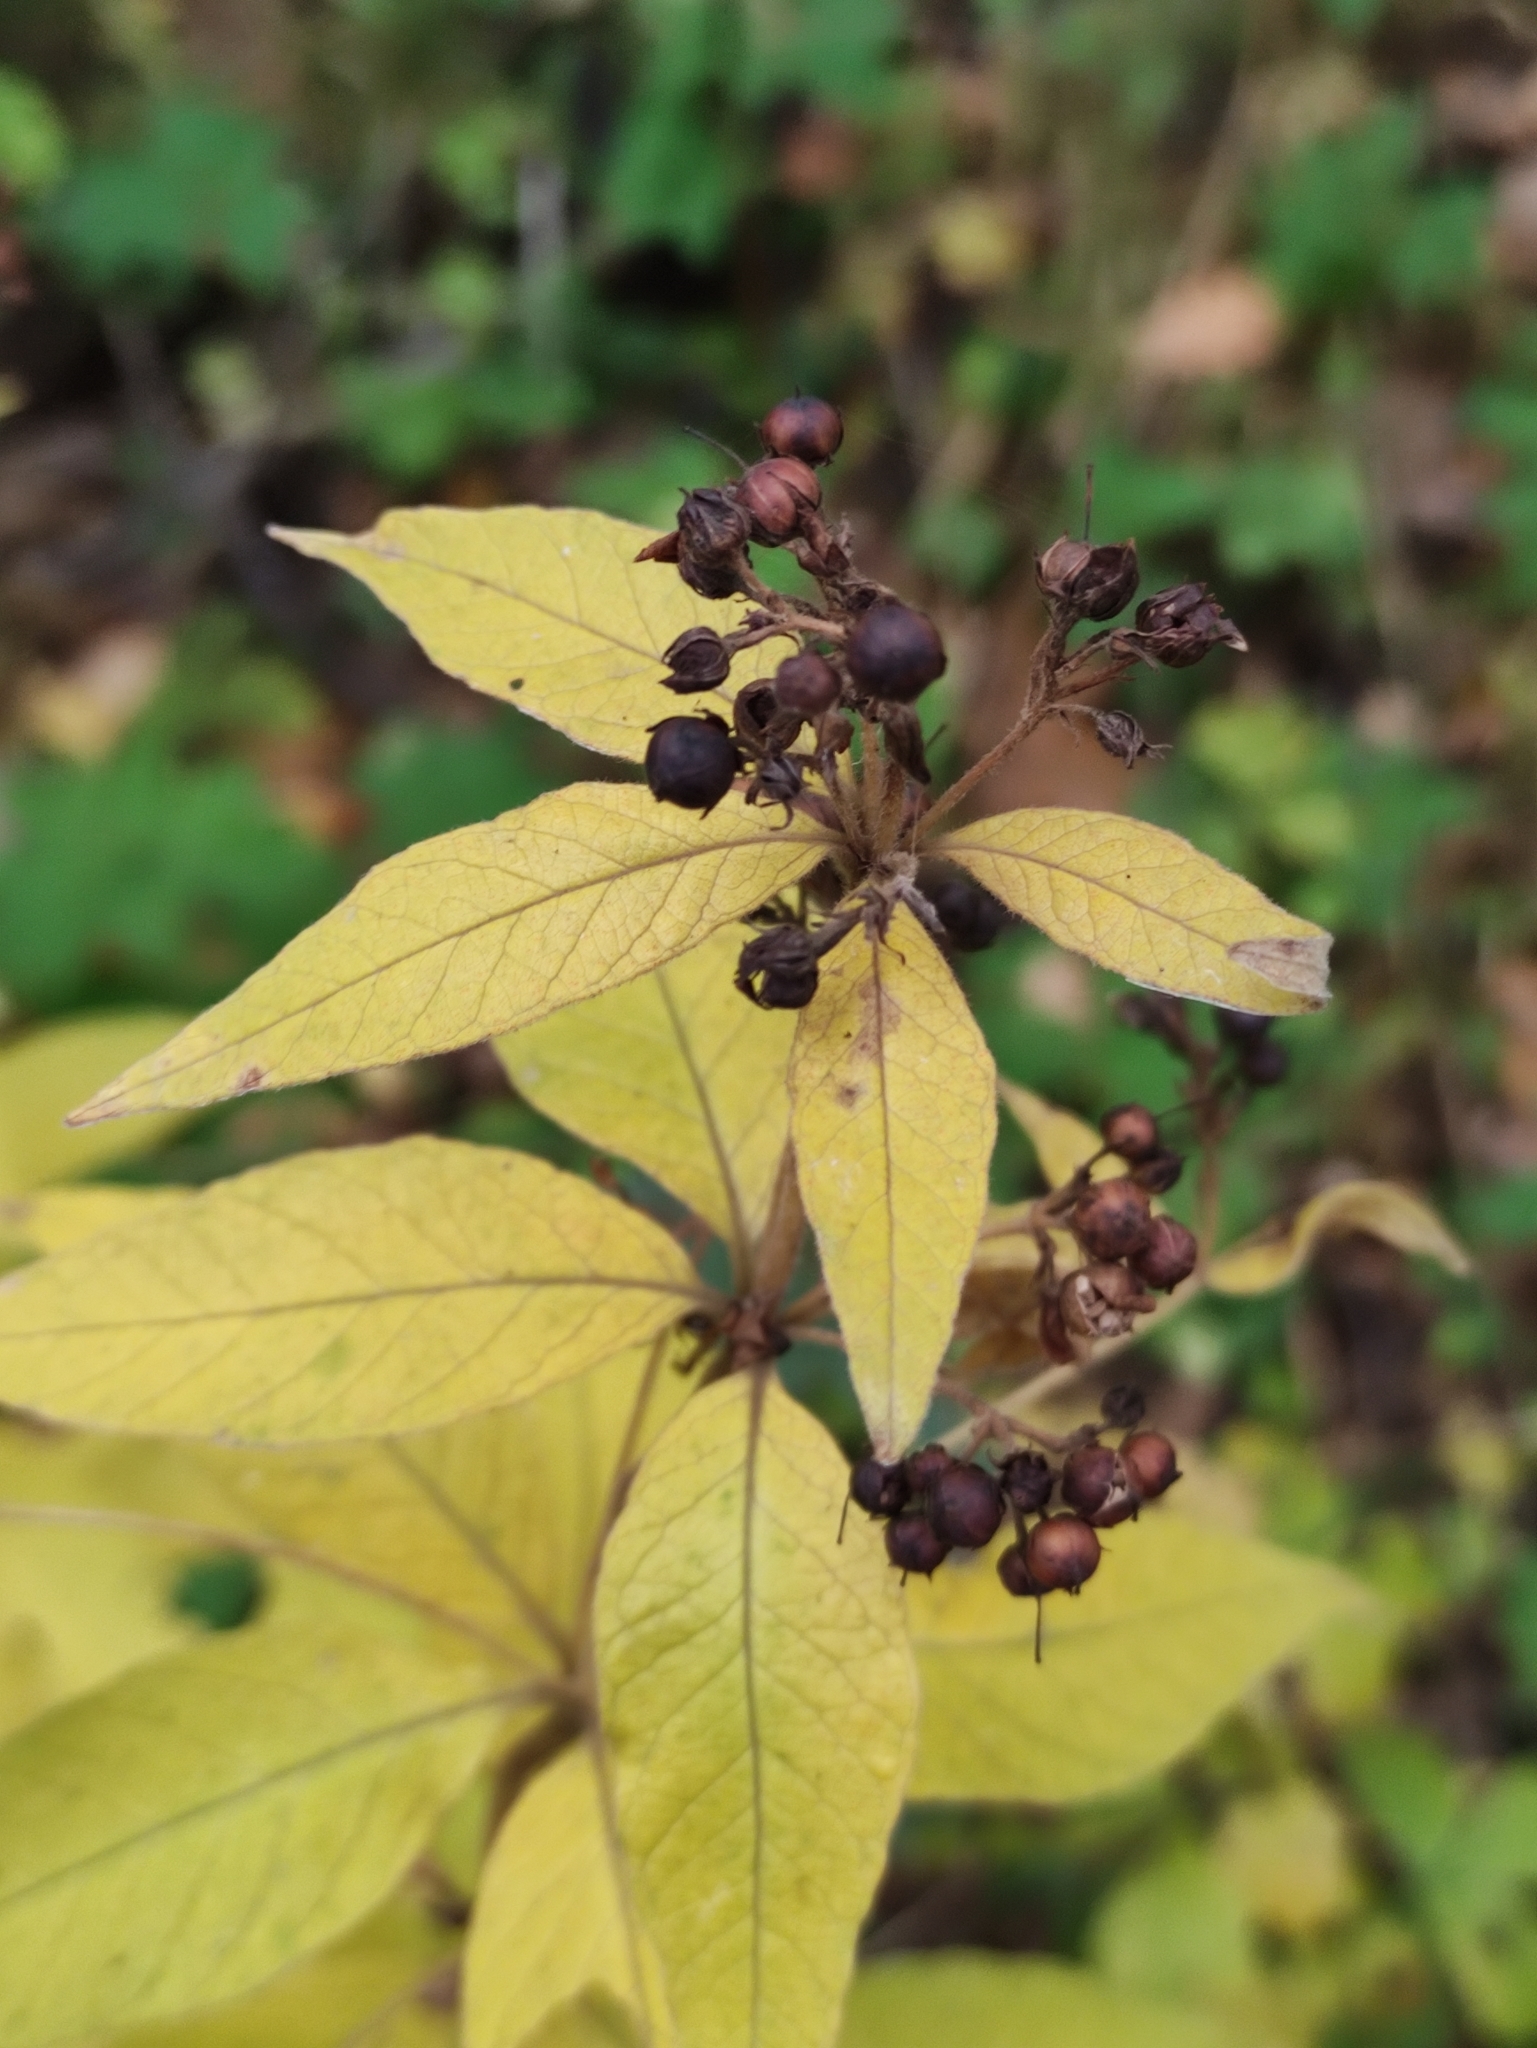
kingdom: Plantae
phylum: Tracheophyta
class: Magnoliopsida
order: Ericales
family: Primulaceae
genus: Lysimachia
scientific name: Lysimachia vulgaris
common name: Yellow loosestrife
